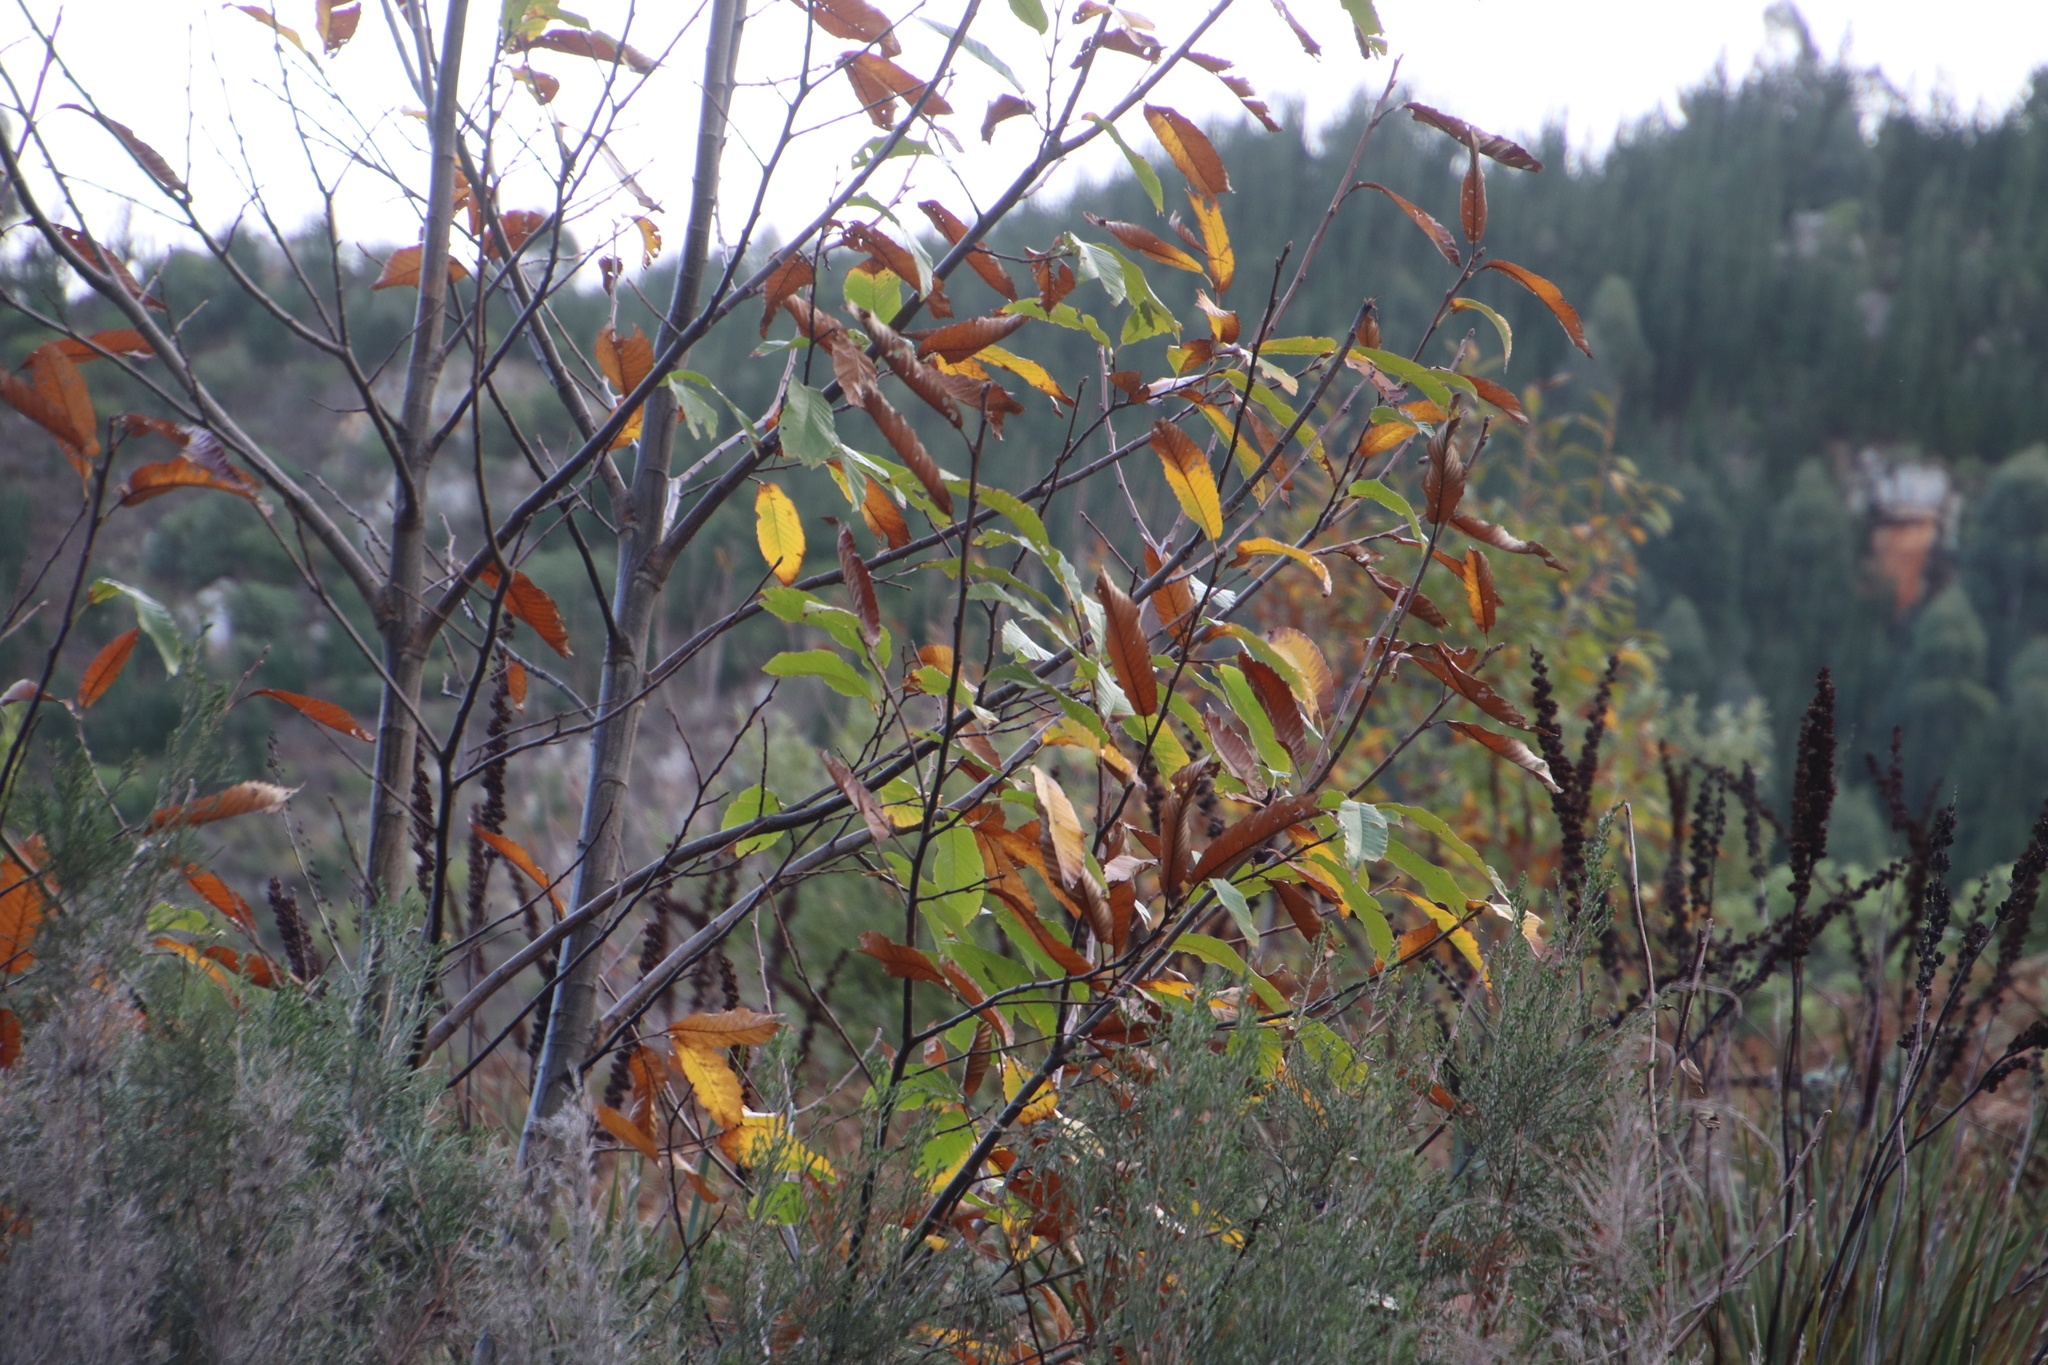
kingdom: Plantae
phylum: Tracheophyta
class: Magnoliopsida
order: Fagales
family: Fagaceae
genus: Castanea
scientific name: Castanea sativa
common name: Sweet chestnut
